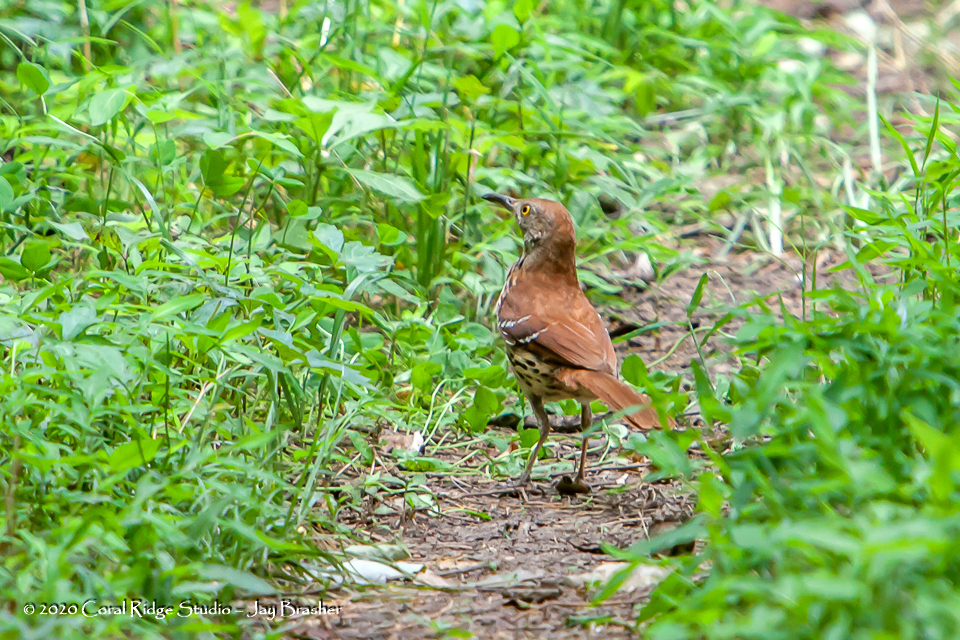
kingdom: Animalia
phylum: Chordata
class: Aves
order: Passeriformes
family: Mimidae
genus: Toxostoma
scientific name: Toxostoma rufum
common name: Brown thrasher
